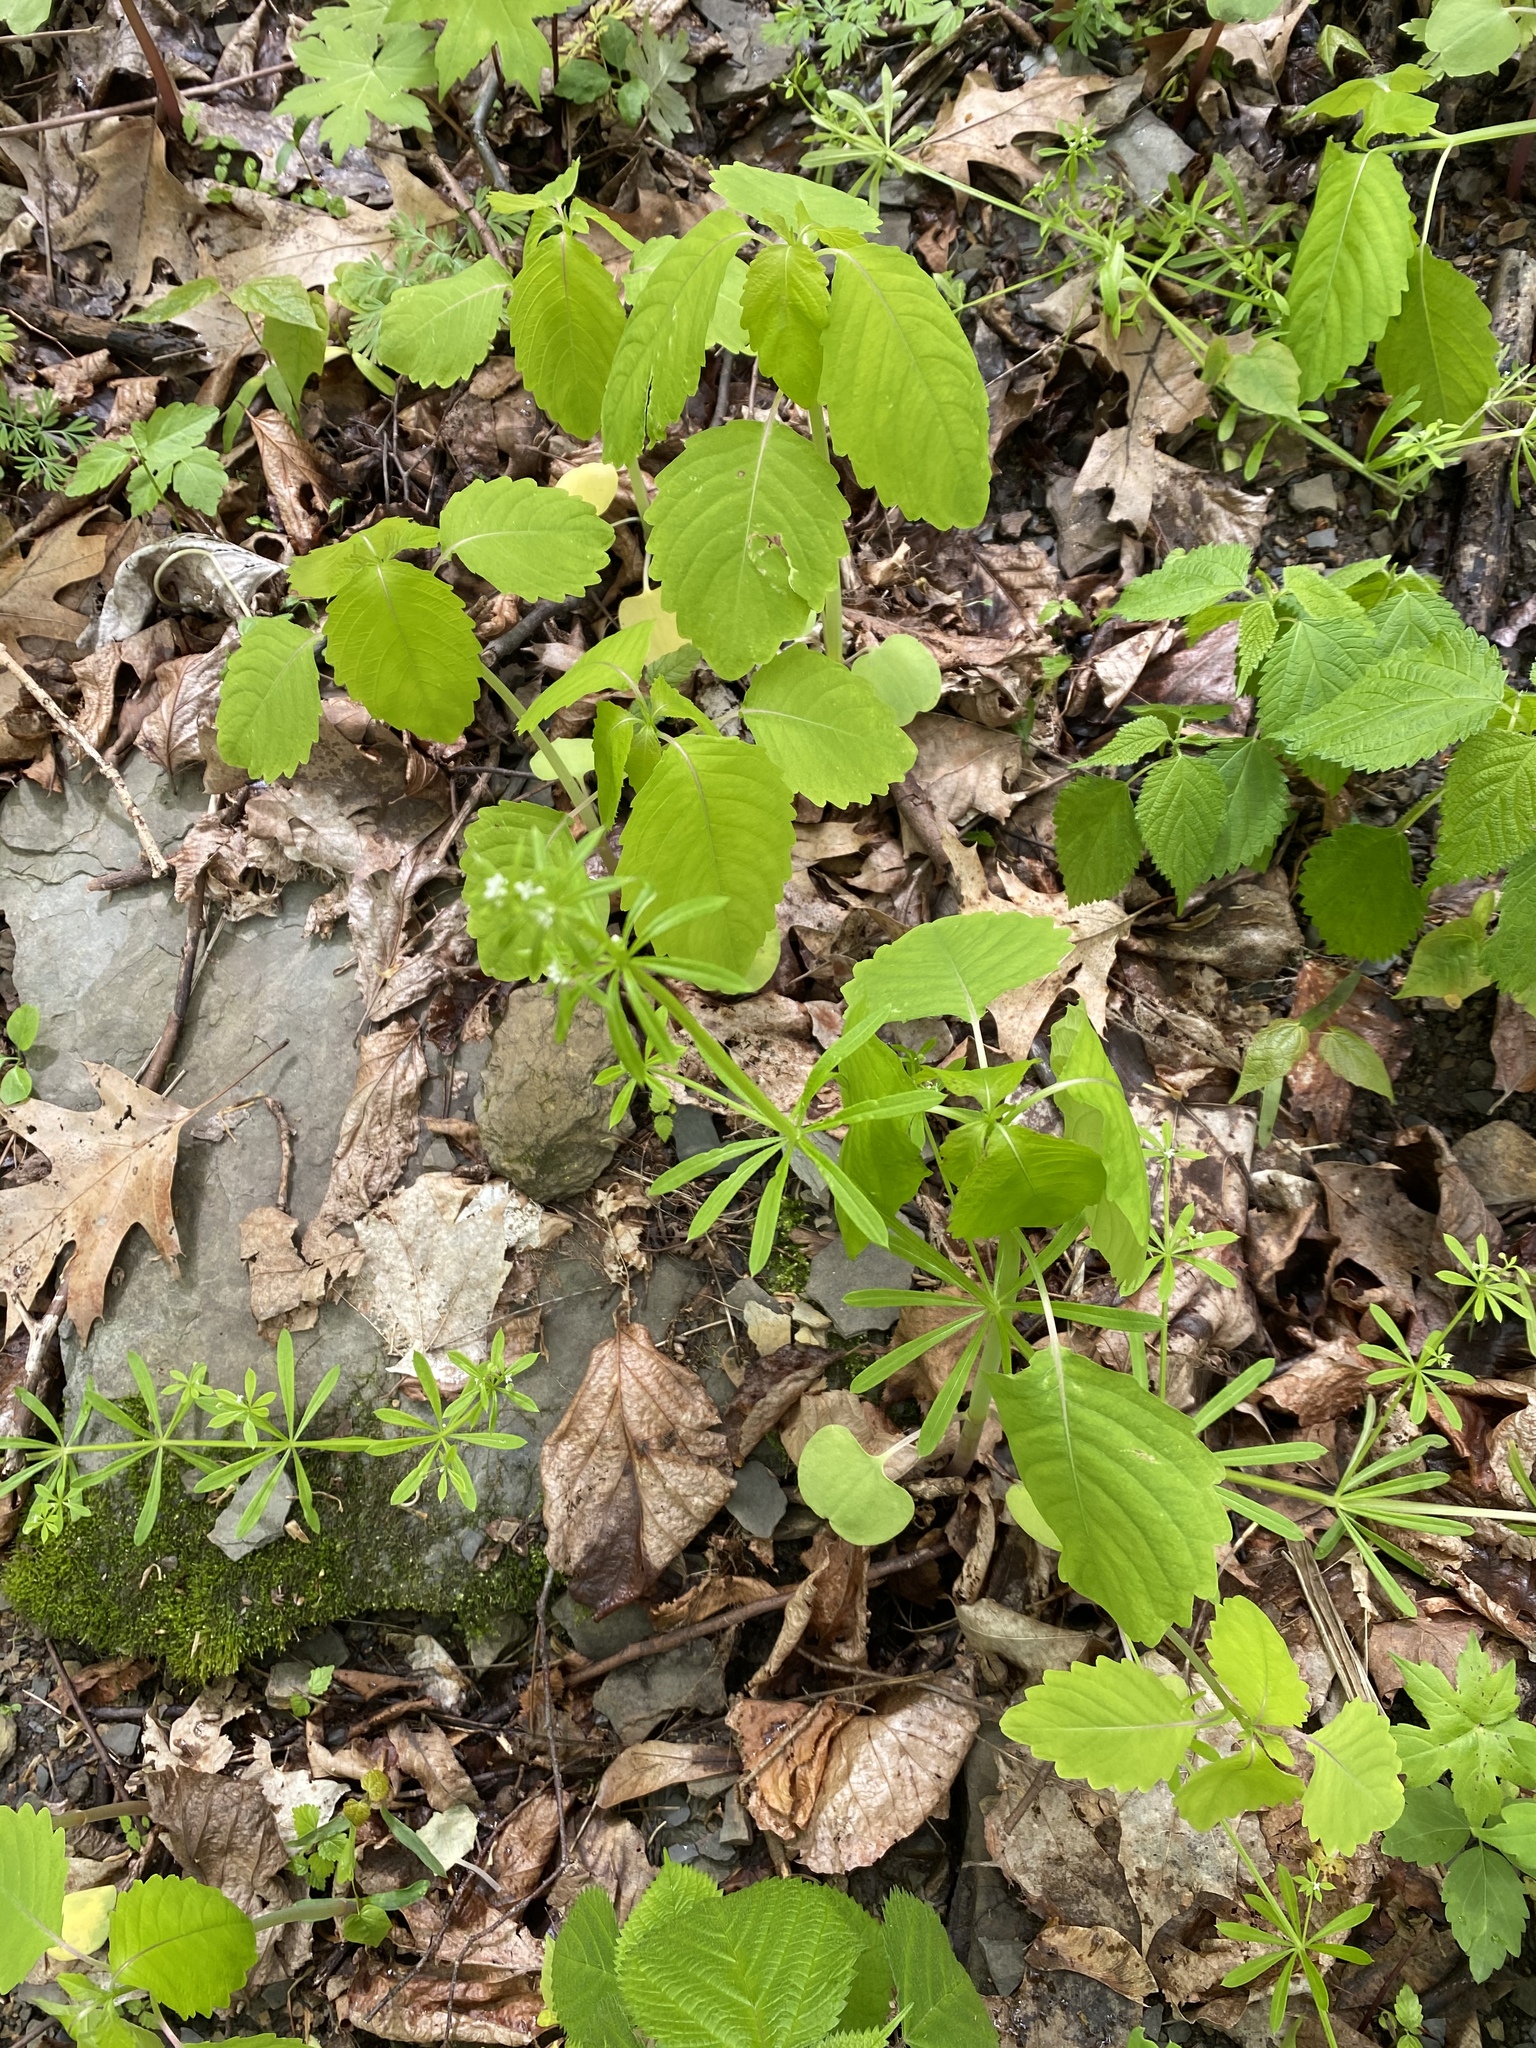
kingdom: Plantae
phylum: Tracheophyta
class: Magnoliopsida
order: Gentianales
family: Rubiaceae
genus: Galium
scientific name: Galium aparine
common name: Cleavers
